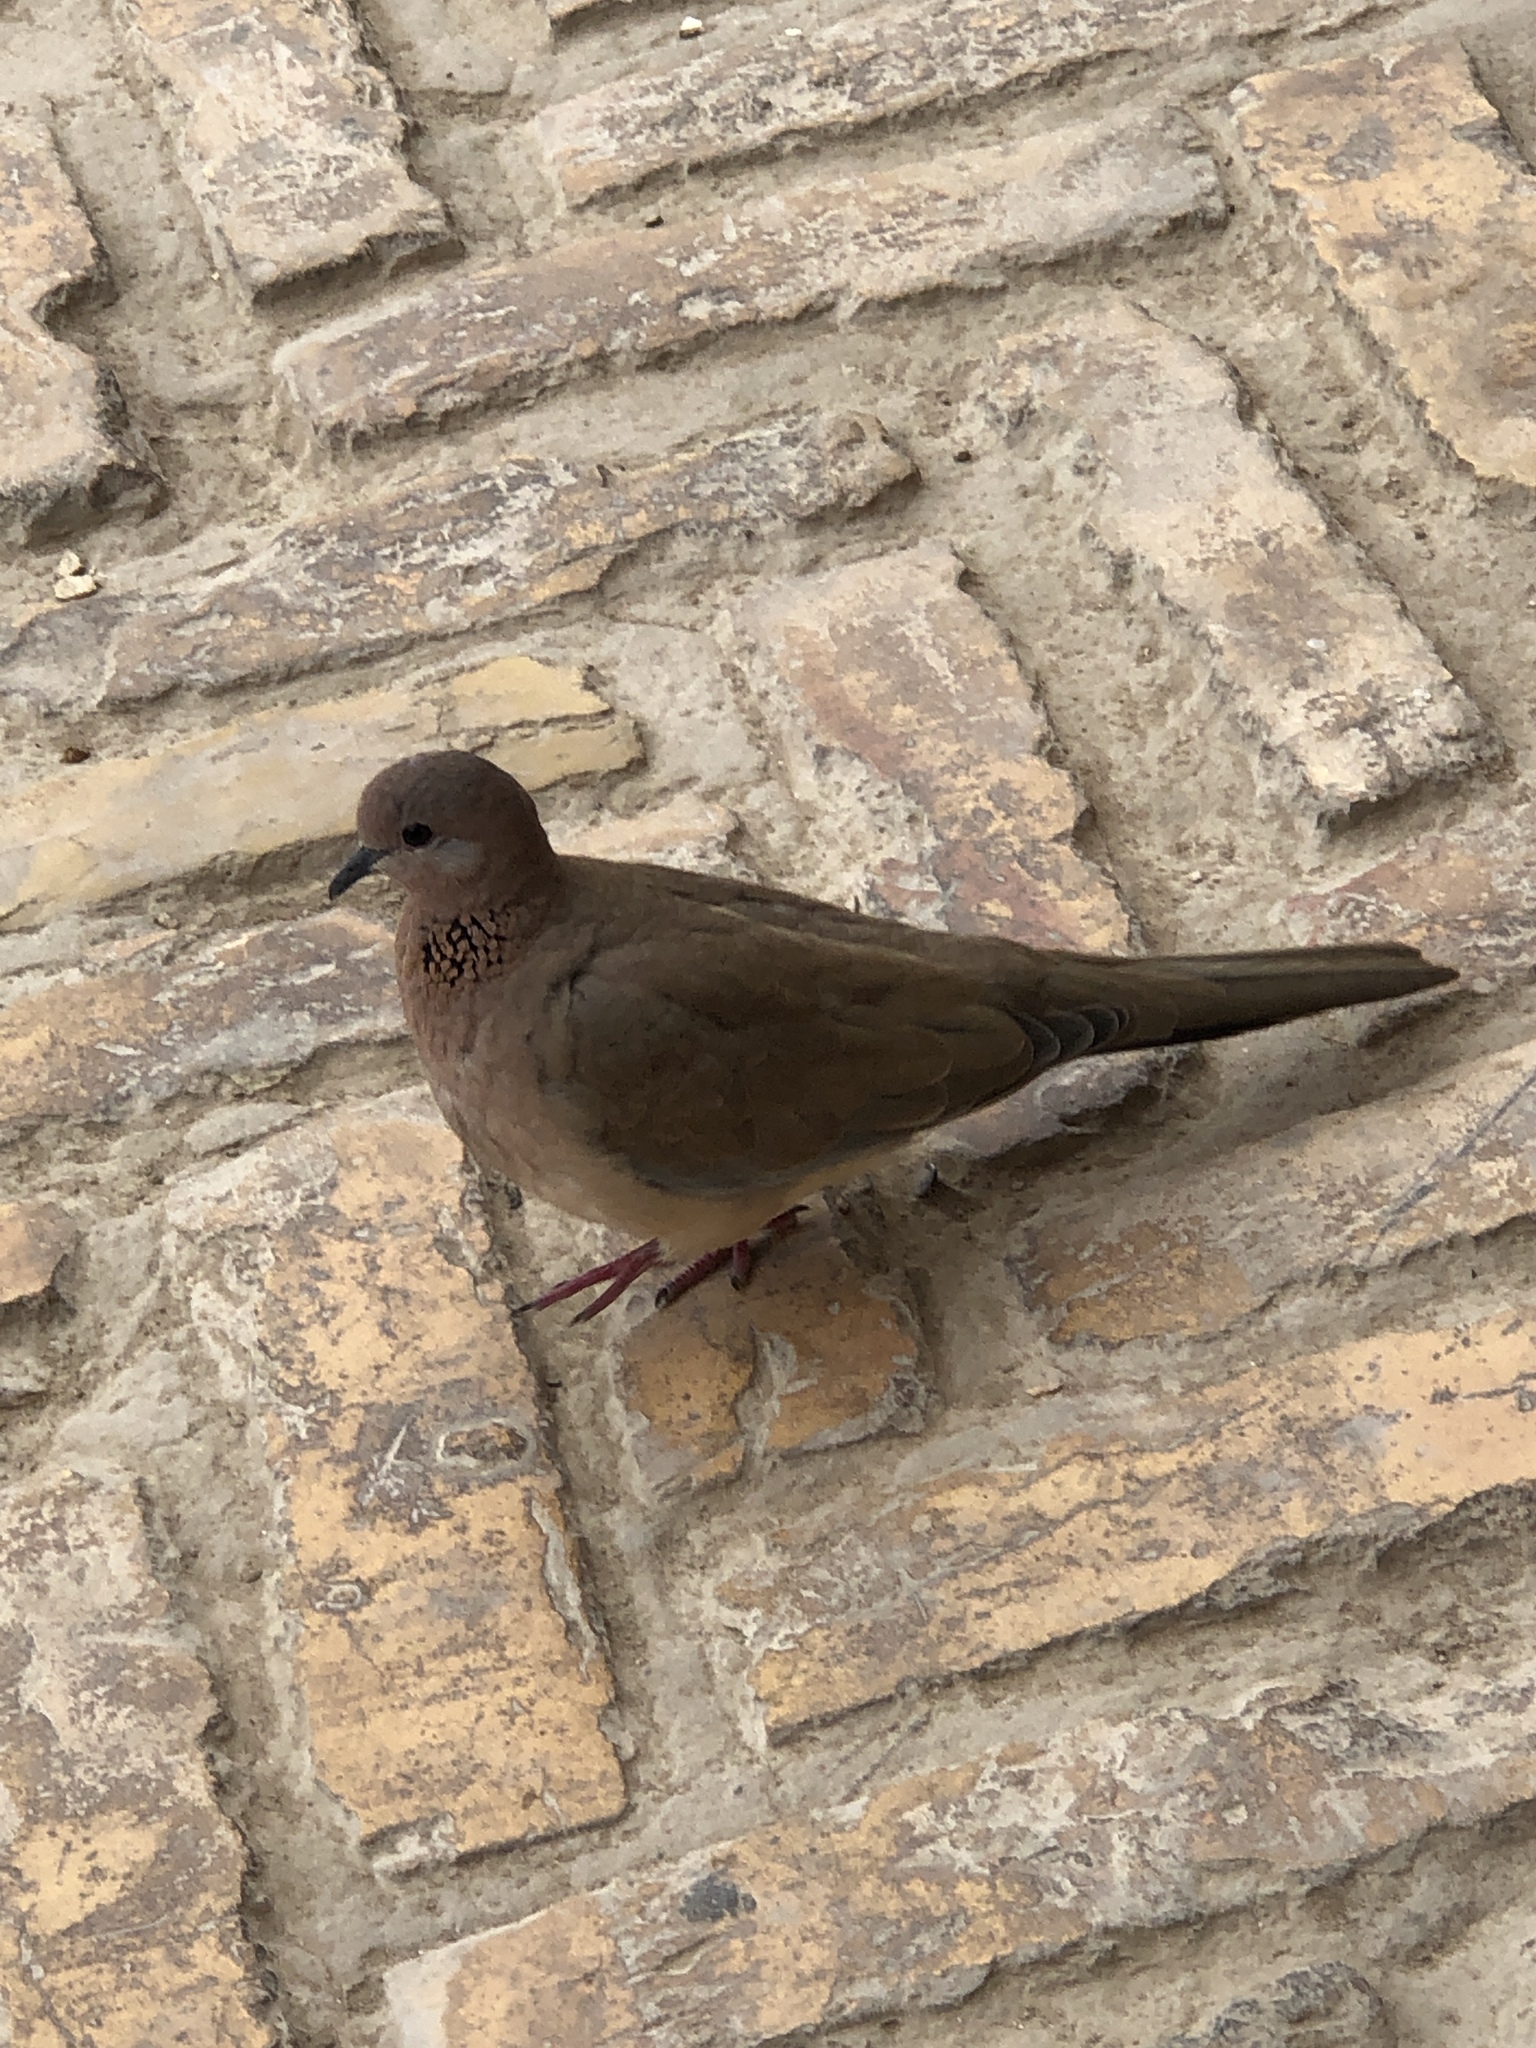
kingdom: Animalia
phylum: Chordata
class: Aves
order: Columbiformes
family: Columbidae
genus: Spilopelia
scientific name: Spilopelia senegalensis
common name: Laughing dove
